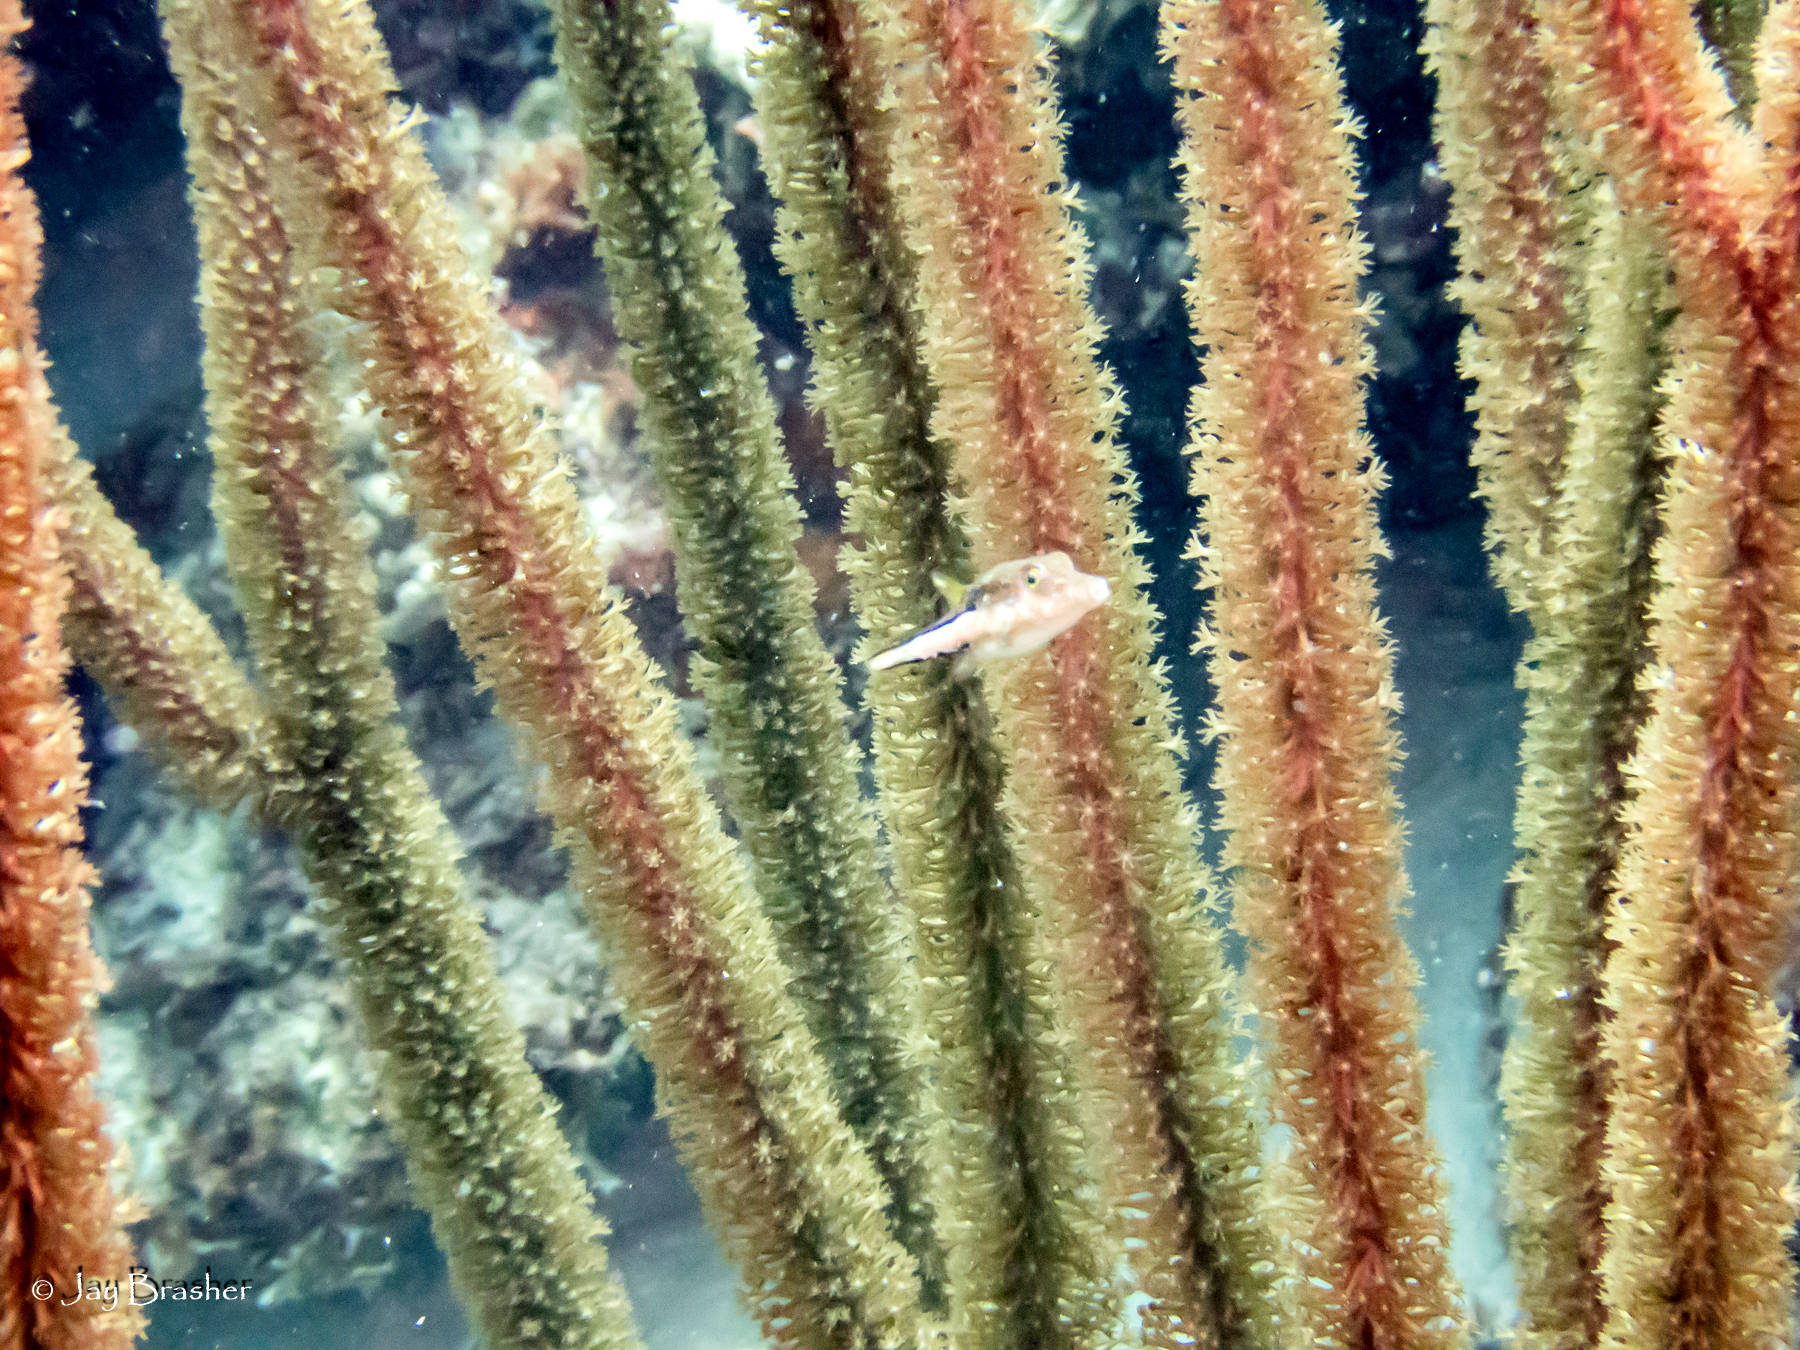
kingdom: Animalia
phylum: Chordata
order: Tetraodontiformes
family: Tetraodontidae
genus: Canthigaster
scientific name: Canthigaster rostrata
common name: Caribbean sharpnose-puffer
